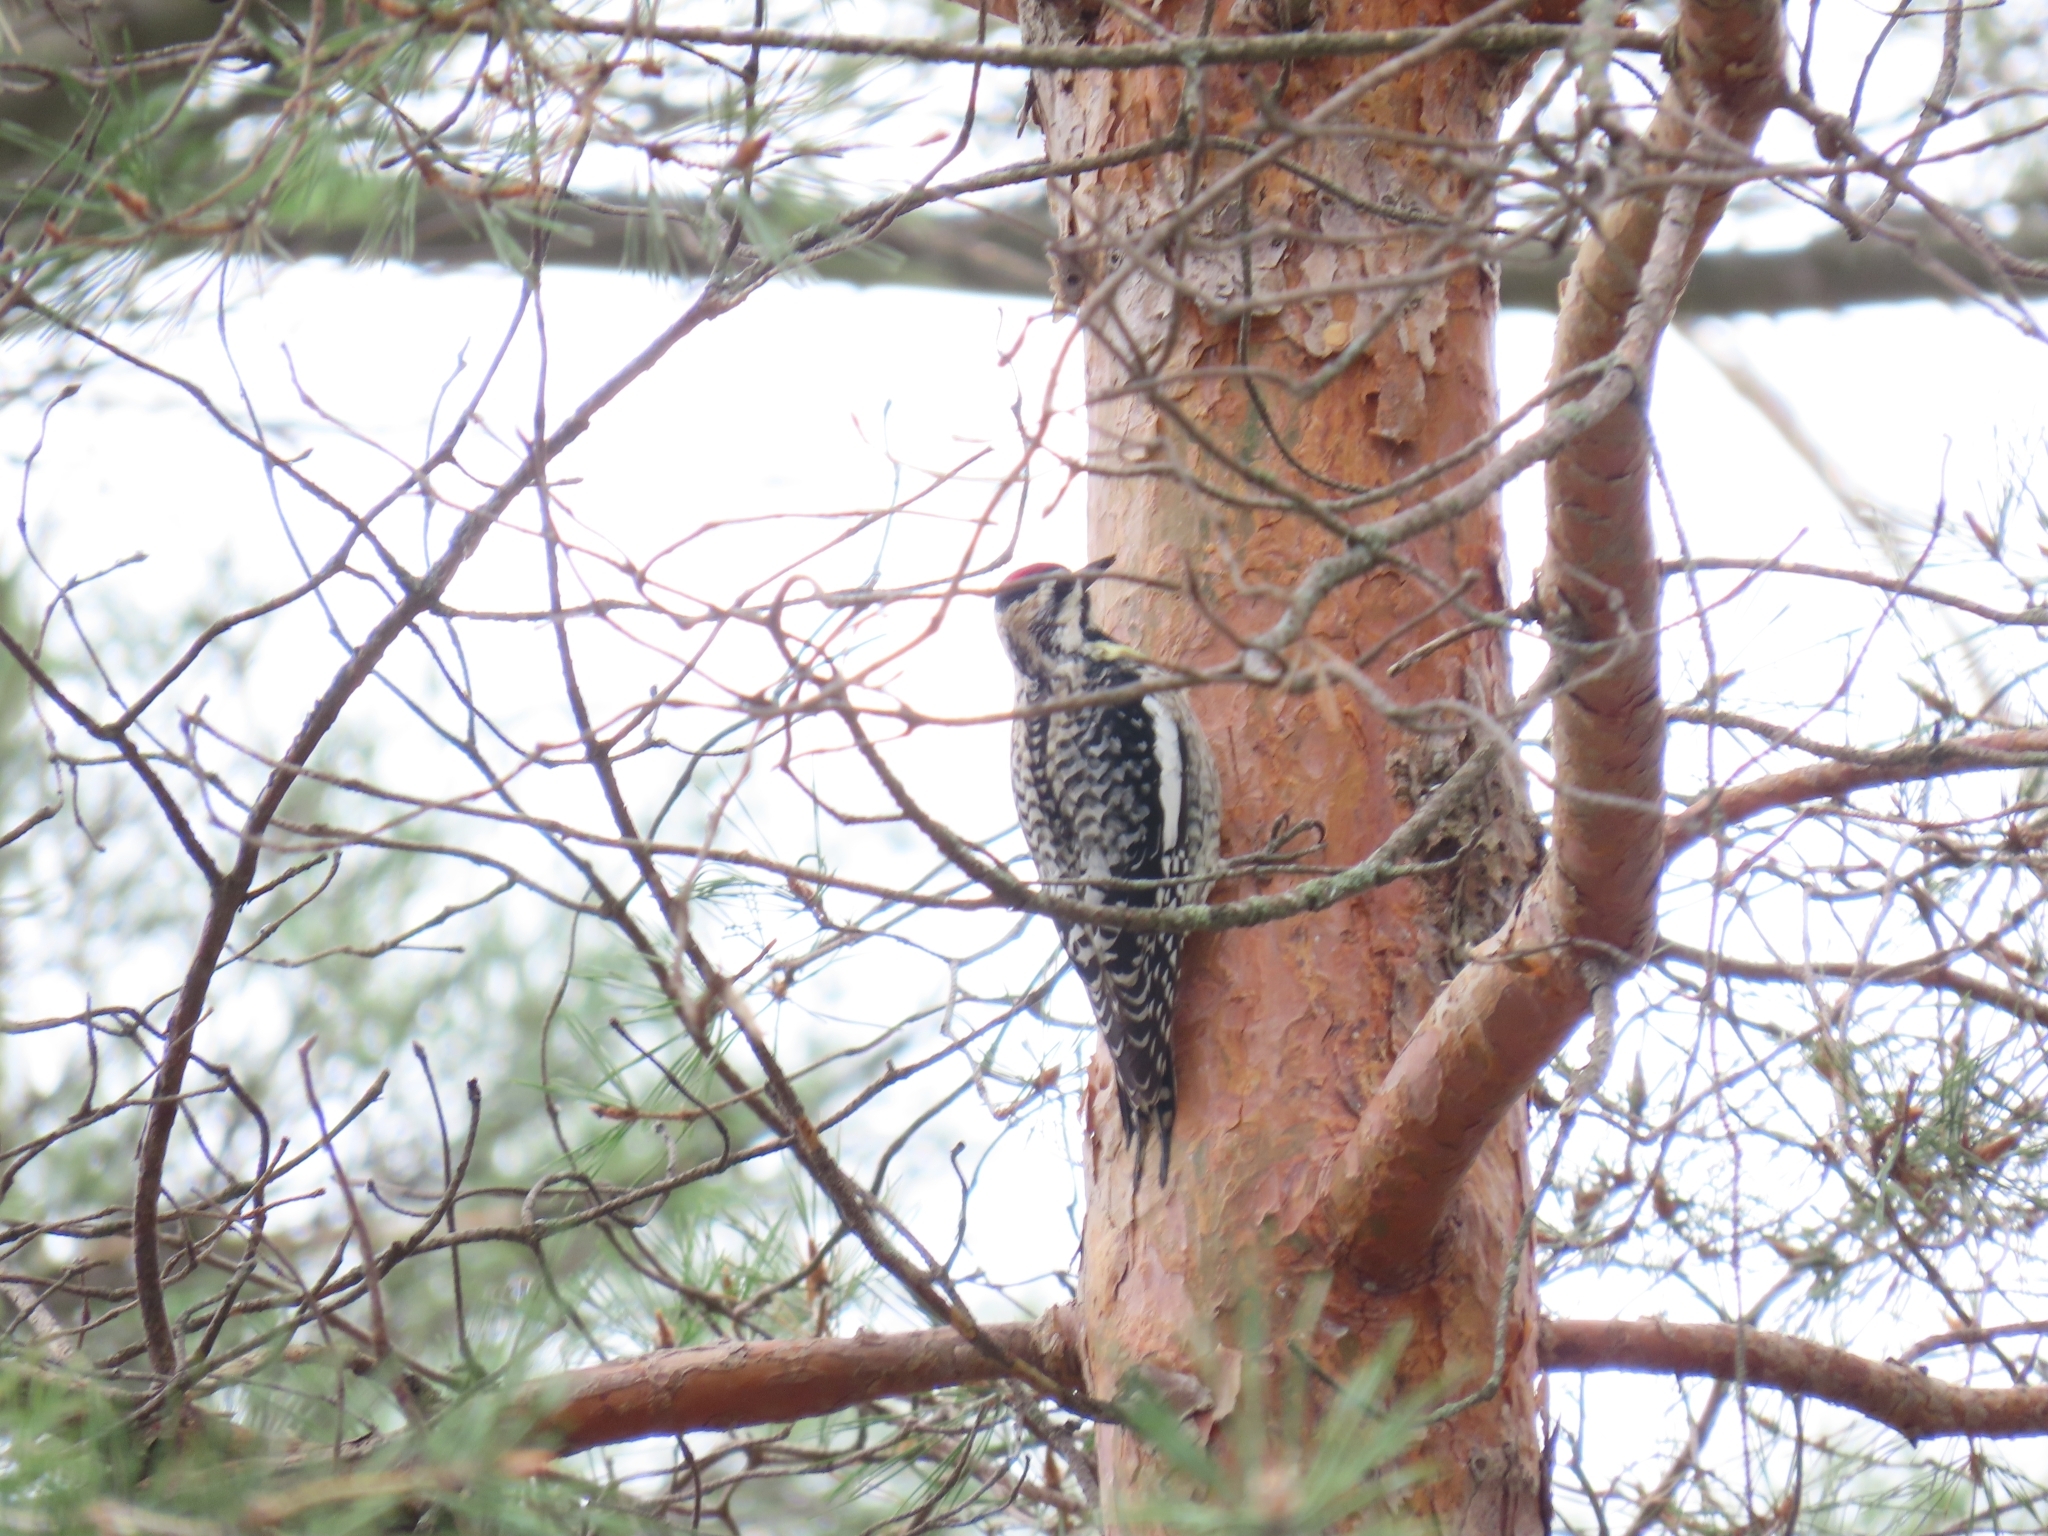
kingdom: Animalia
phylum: Chordata
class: Aves
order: Piciformes
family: Picidae
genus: Sphyrapicus
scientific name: Sphyrapicus varius
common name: Yellow-bellied sapsucker
